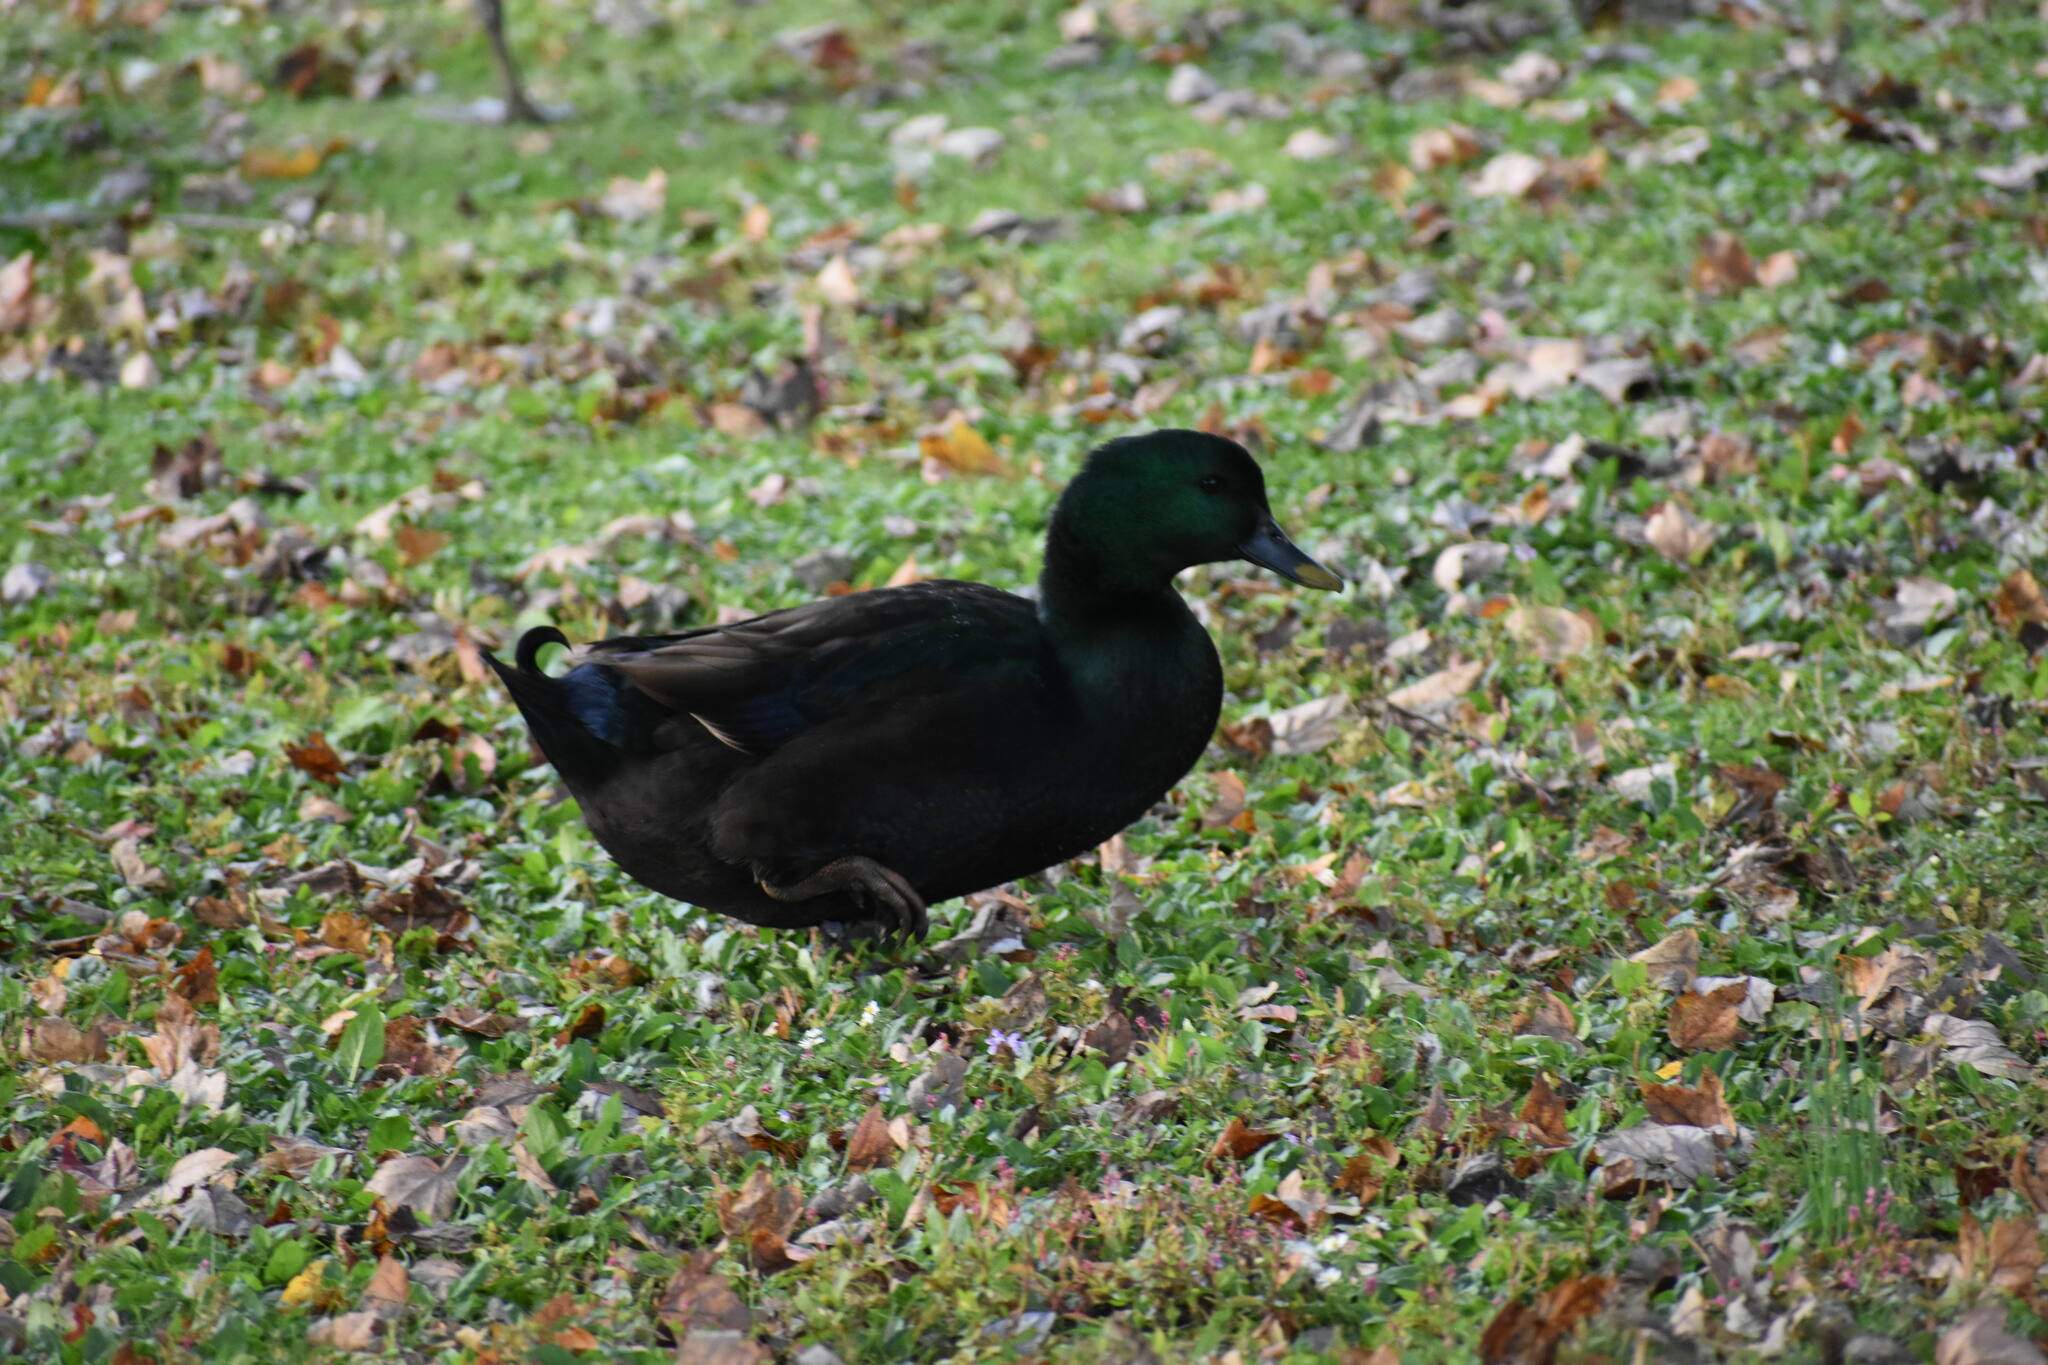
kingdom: Animalia
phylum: Chordata
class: Aves
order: Anseriformes
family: Anatidae
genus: Anas
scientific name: Anas platyrhynchos
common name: Mallard
